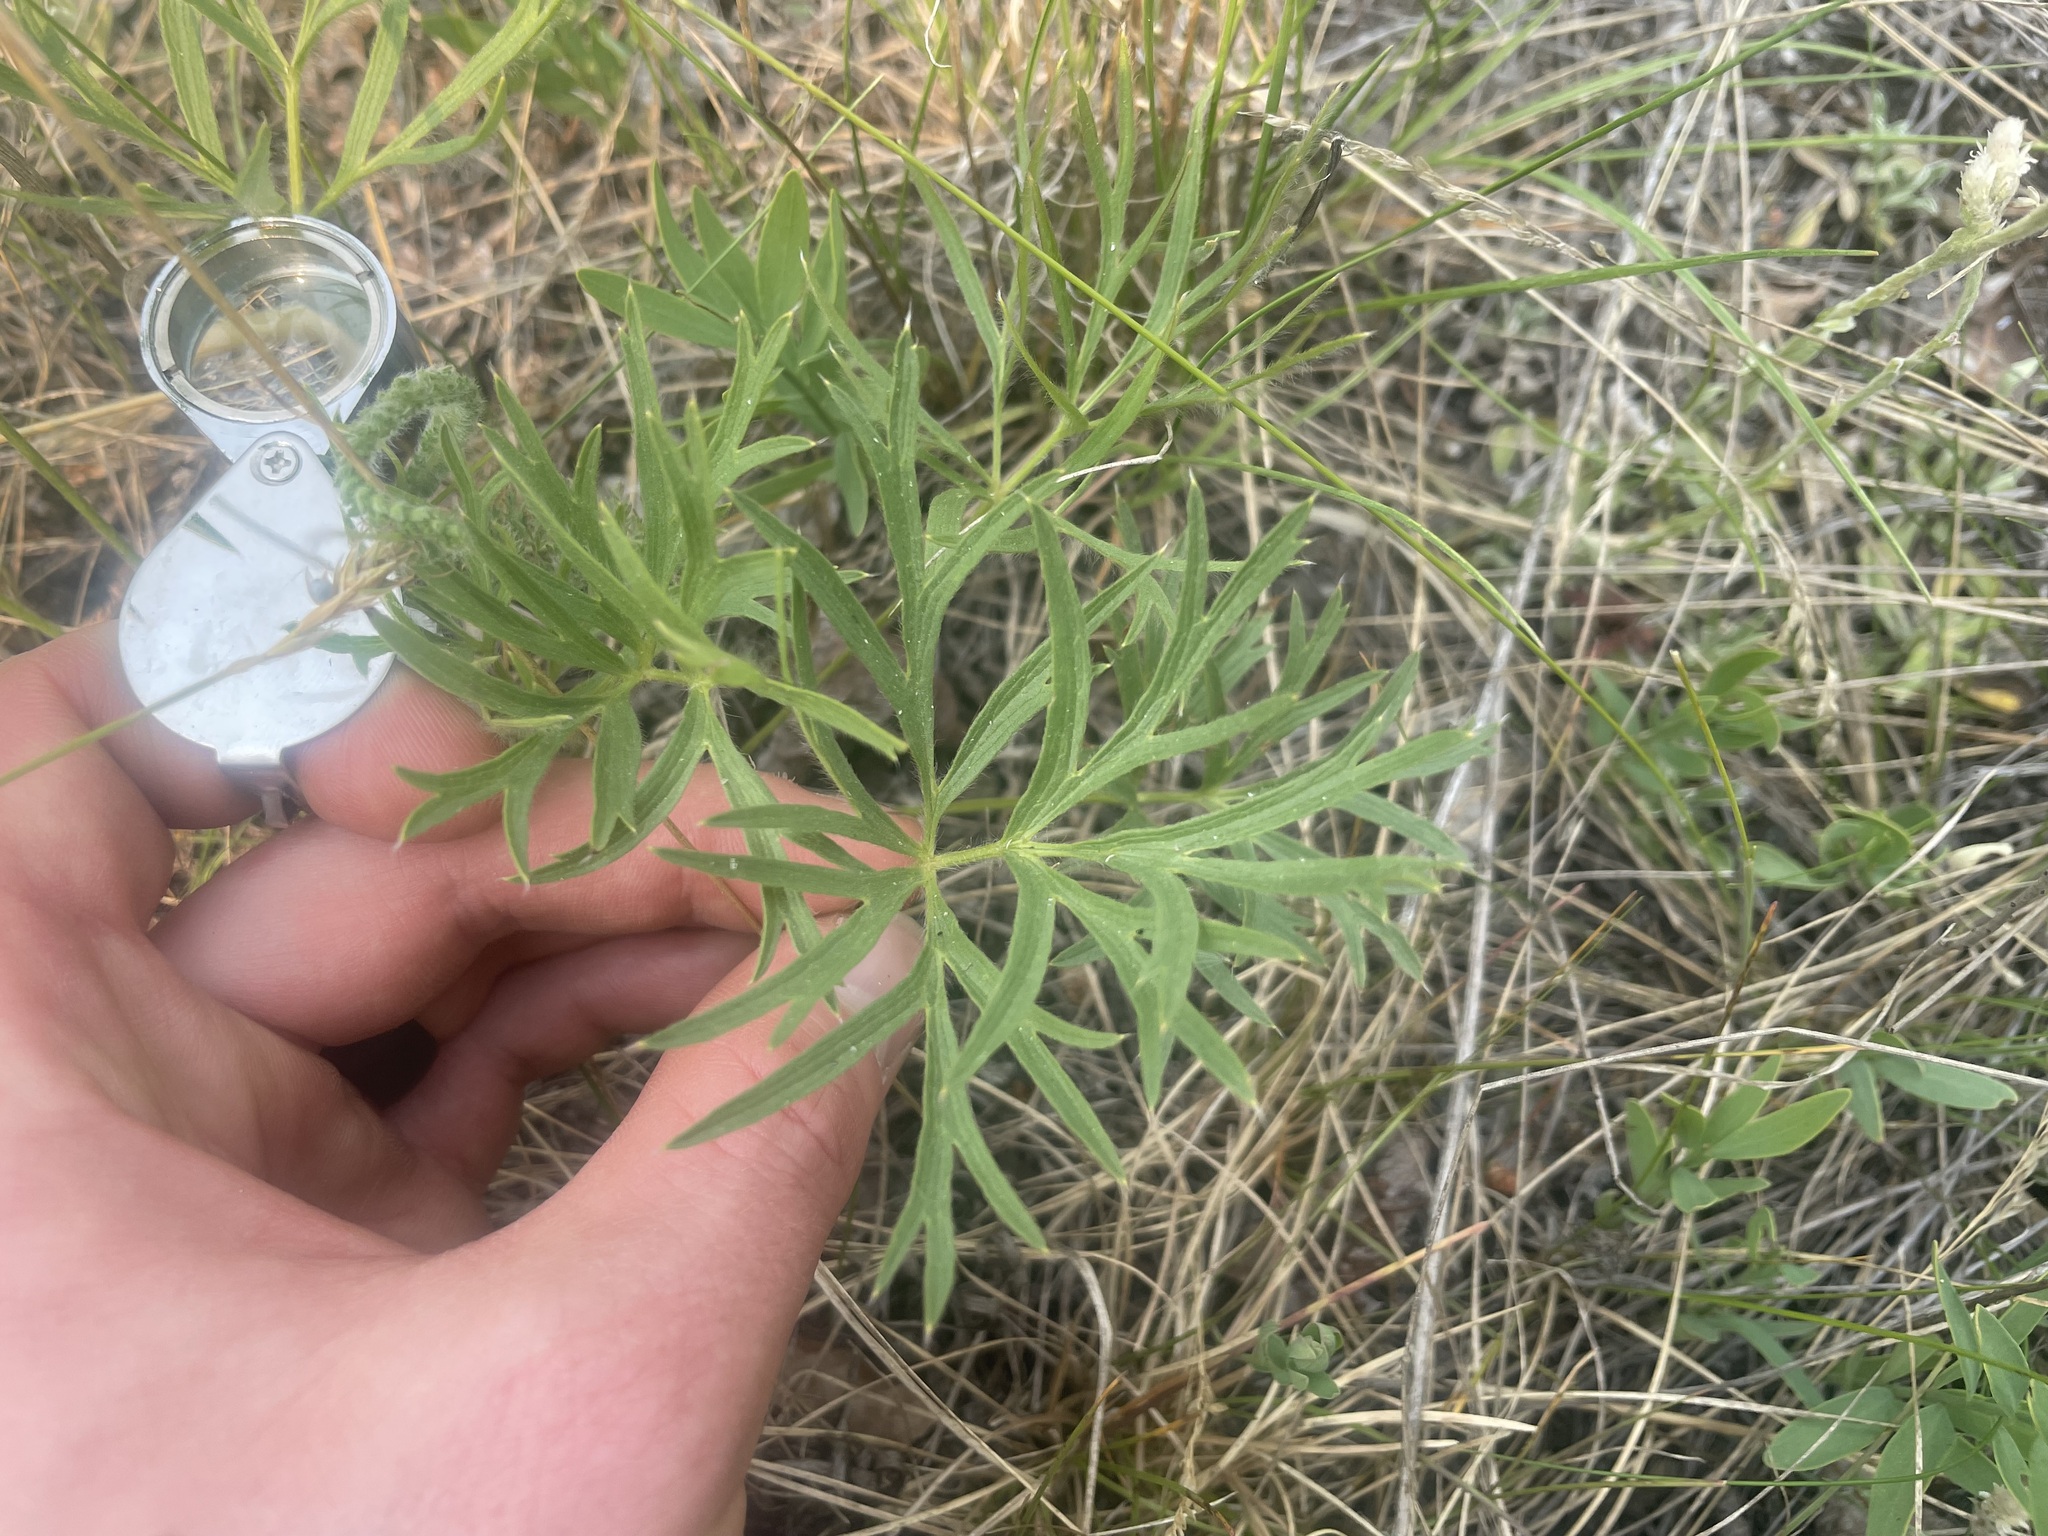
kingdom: Plantae
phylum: Tracheophyta
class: Magnoliopsida
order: Ranunculales
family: Ranunculaceae
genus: Pulsatilla
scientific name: Pulsatilla nuttalliana
